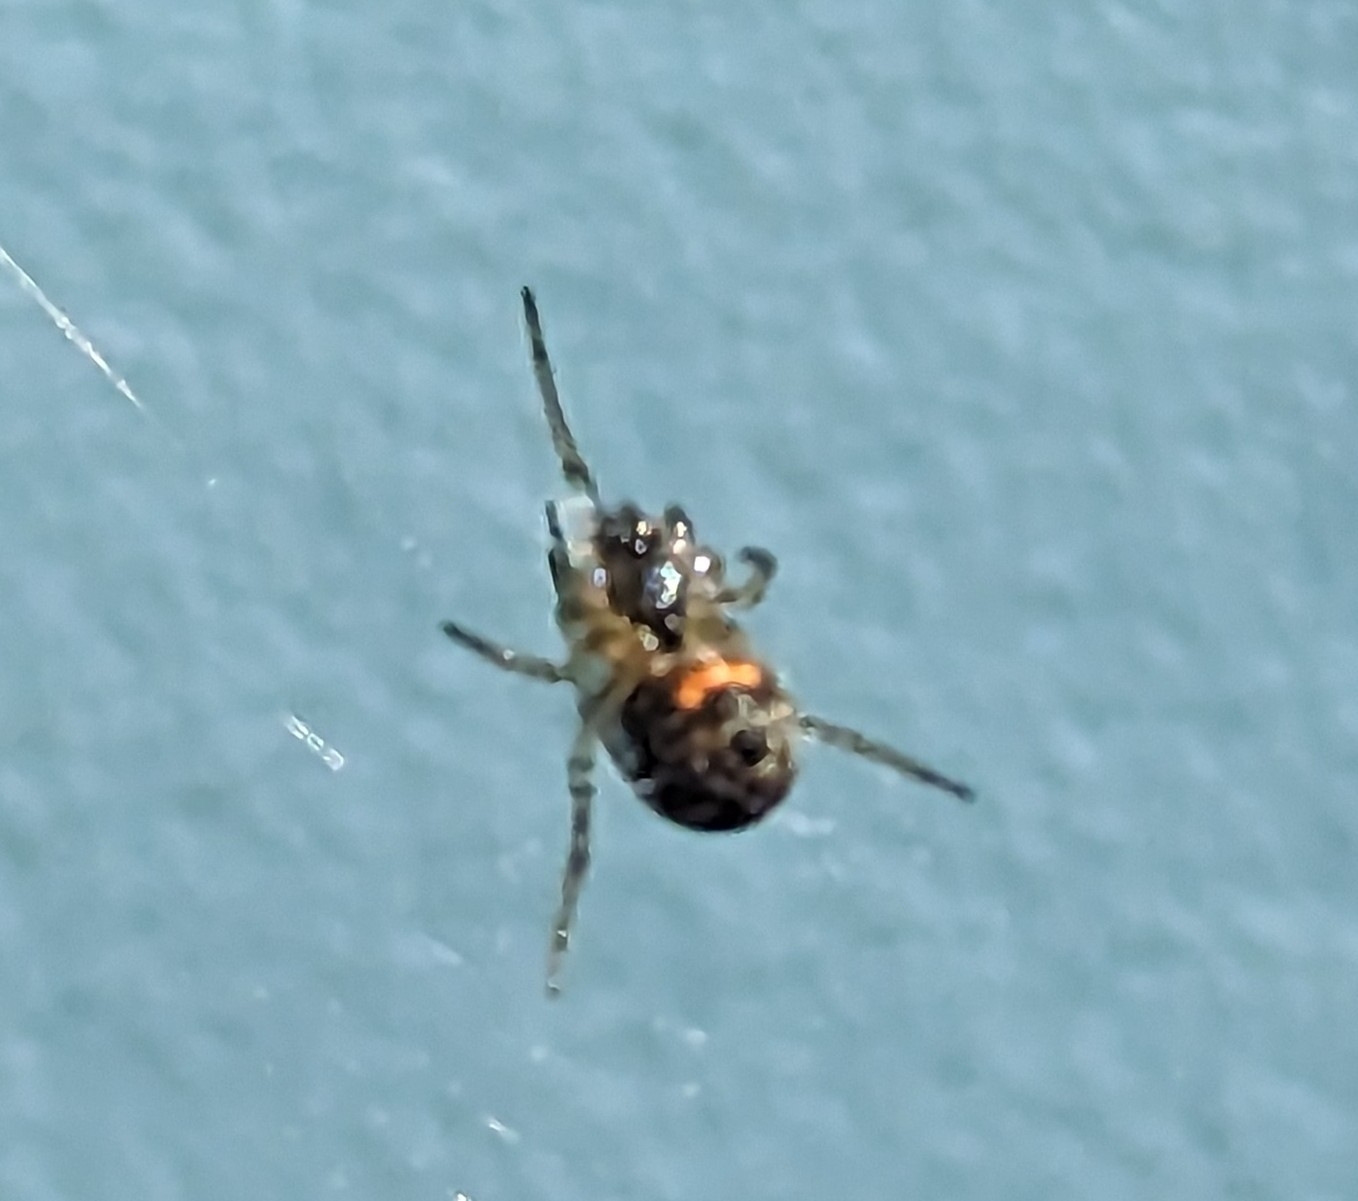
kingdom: Animalia
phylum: Arthropoda
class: Arachnida
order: Araneae
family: Tetragnathidae
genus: Leucauge
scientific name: Leucauge venusta
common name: Longjawed orb weavers
